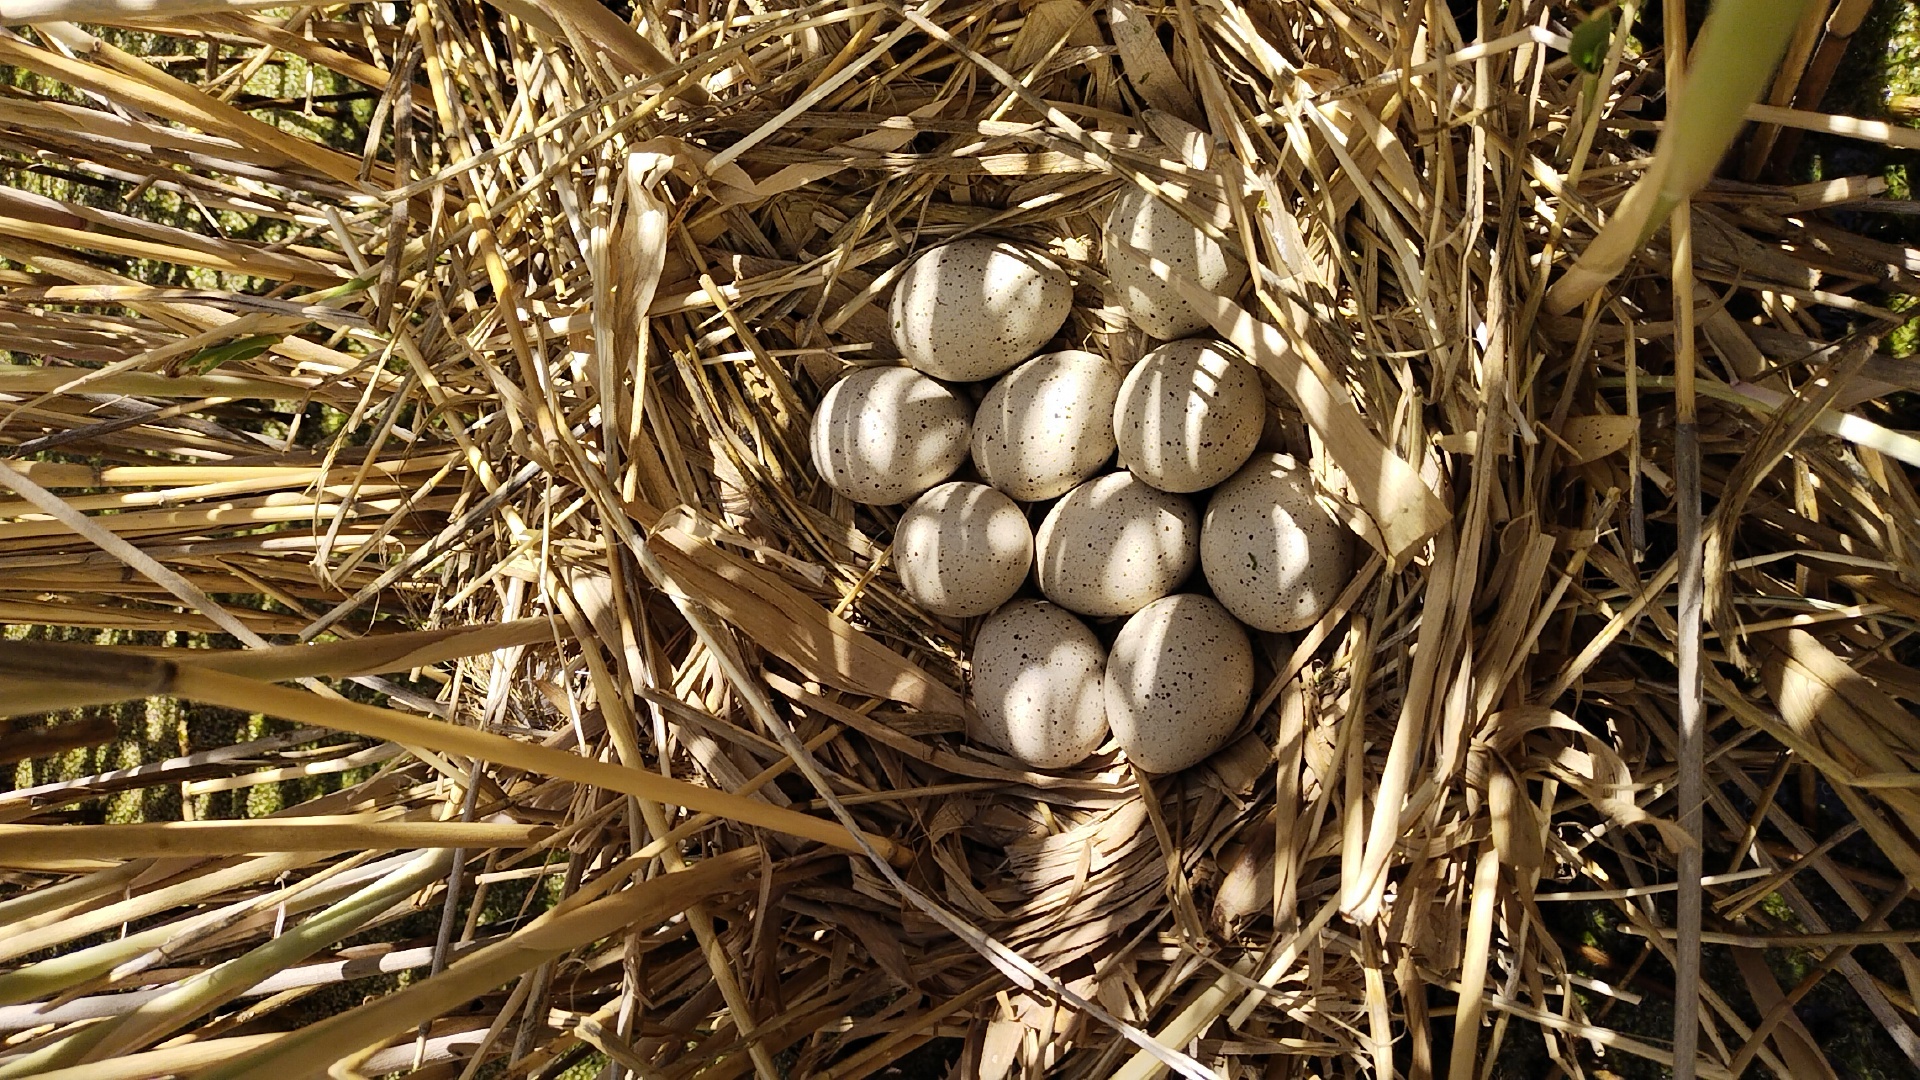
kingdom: Animalia
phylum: Chordata
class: Aves
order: Gruiformes
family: Rallidae
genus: Fulica
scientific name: Fulica atra
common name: Eurasian coot
